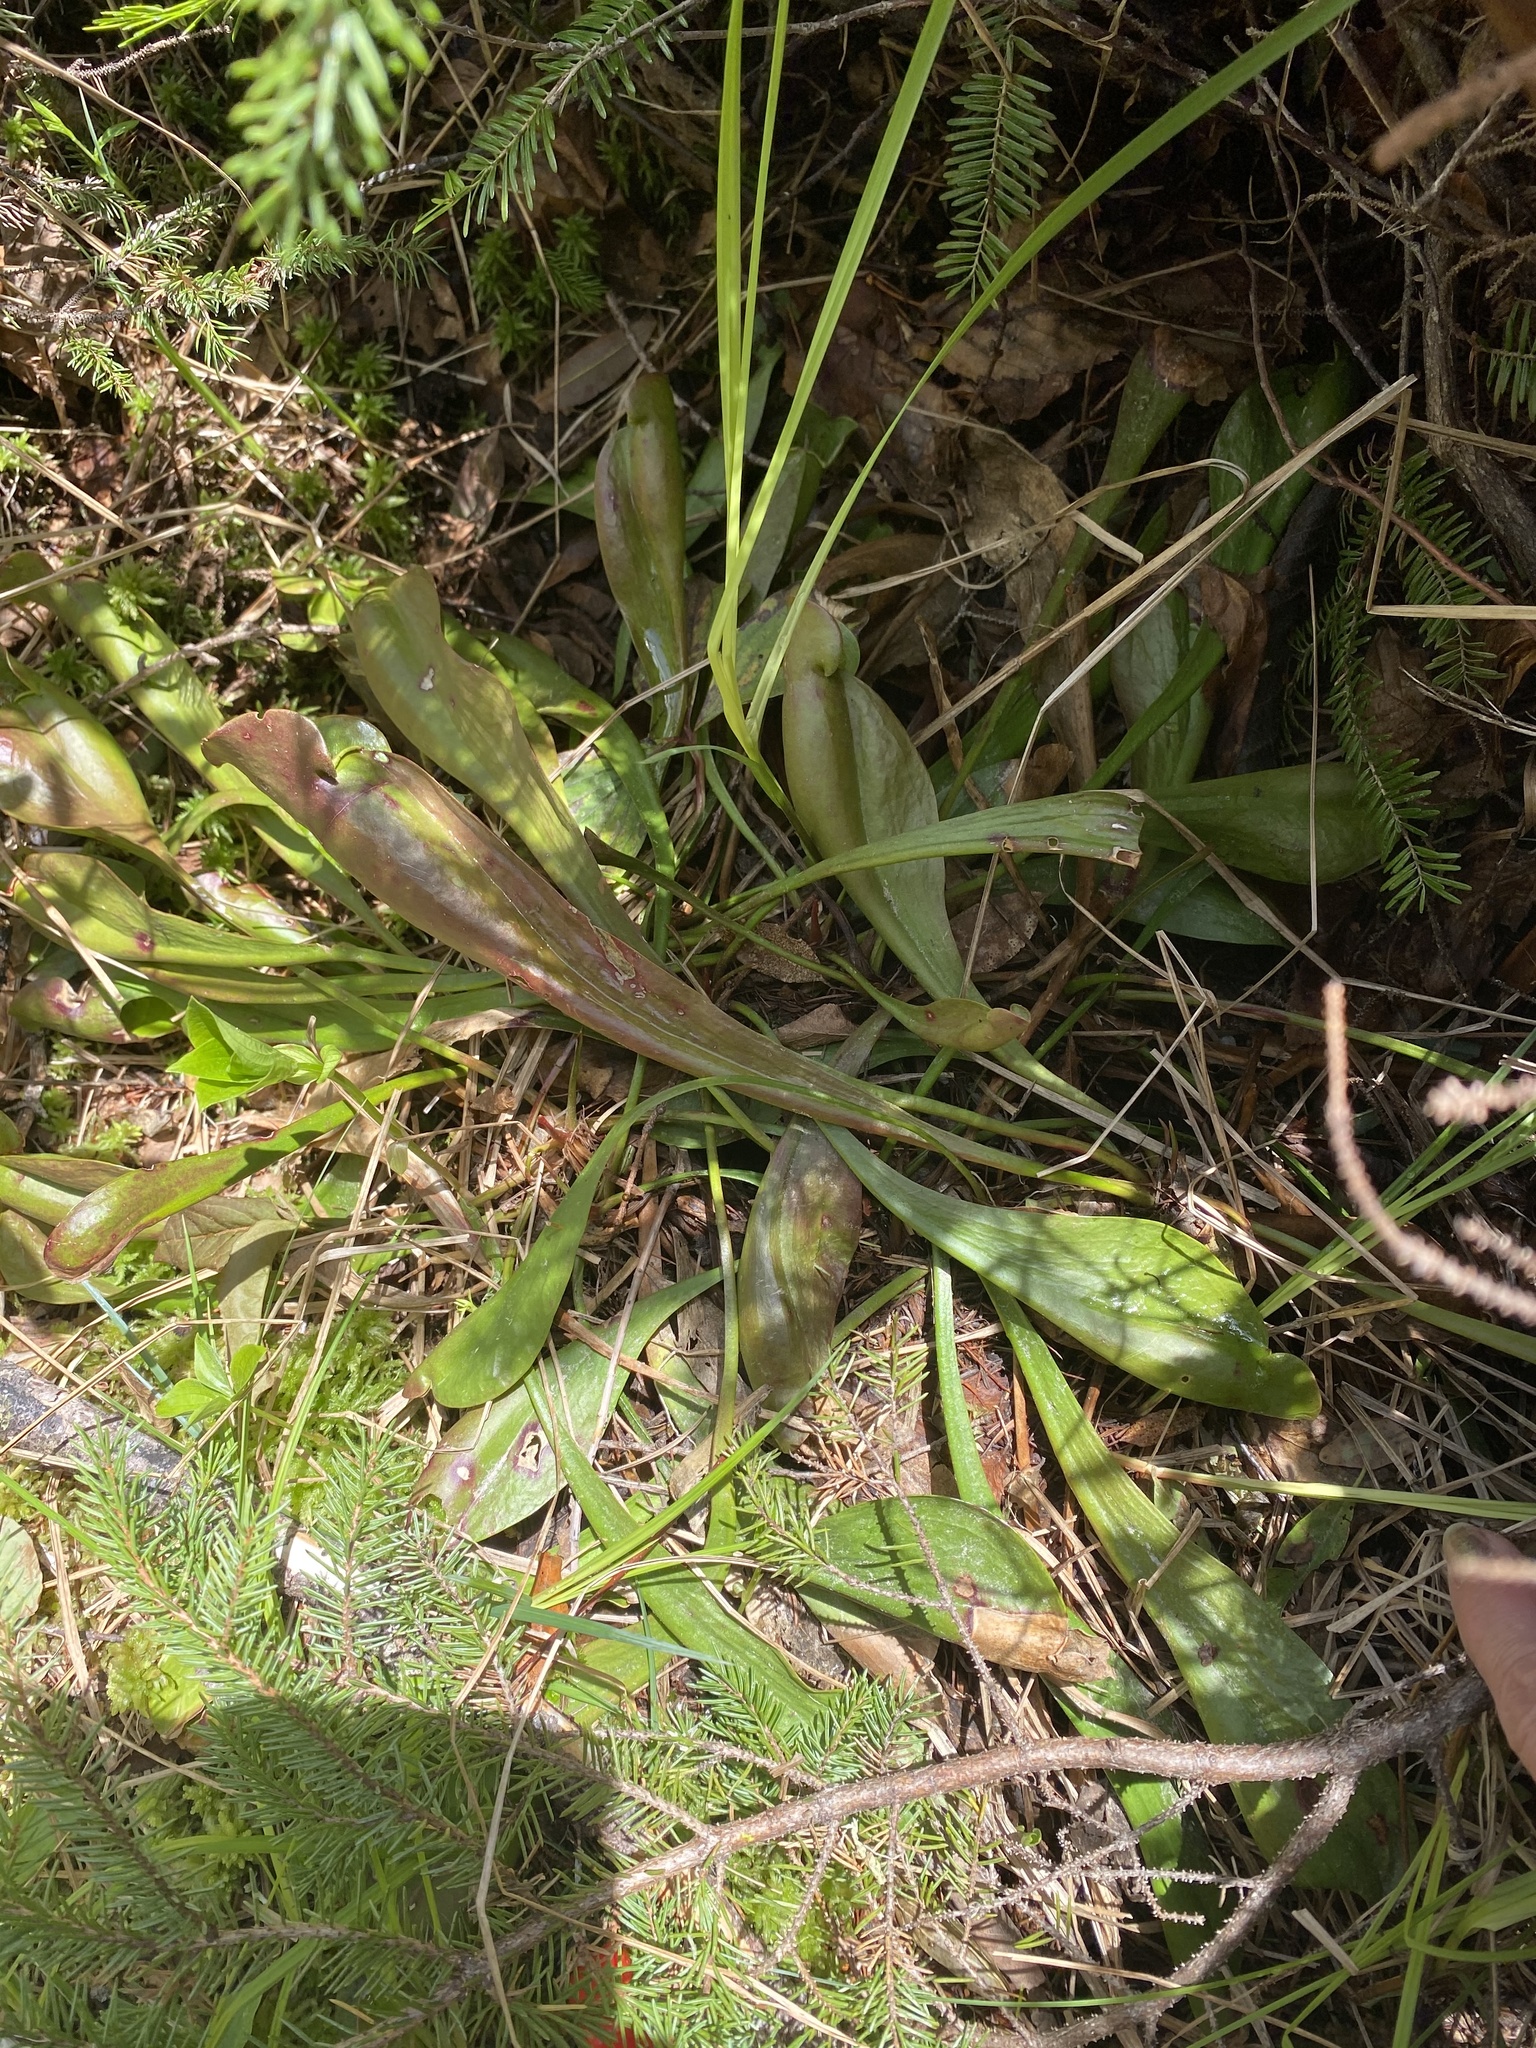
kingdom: Plantae
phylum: Tracheophyta
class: Magnoliopsida
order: Ericales
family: Sarraceniaceae
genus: Sarracenia
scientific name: Sarracenia purpurea
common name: Pitcherplant
